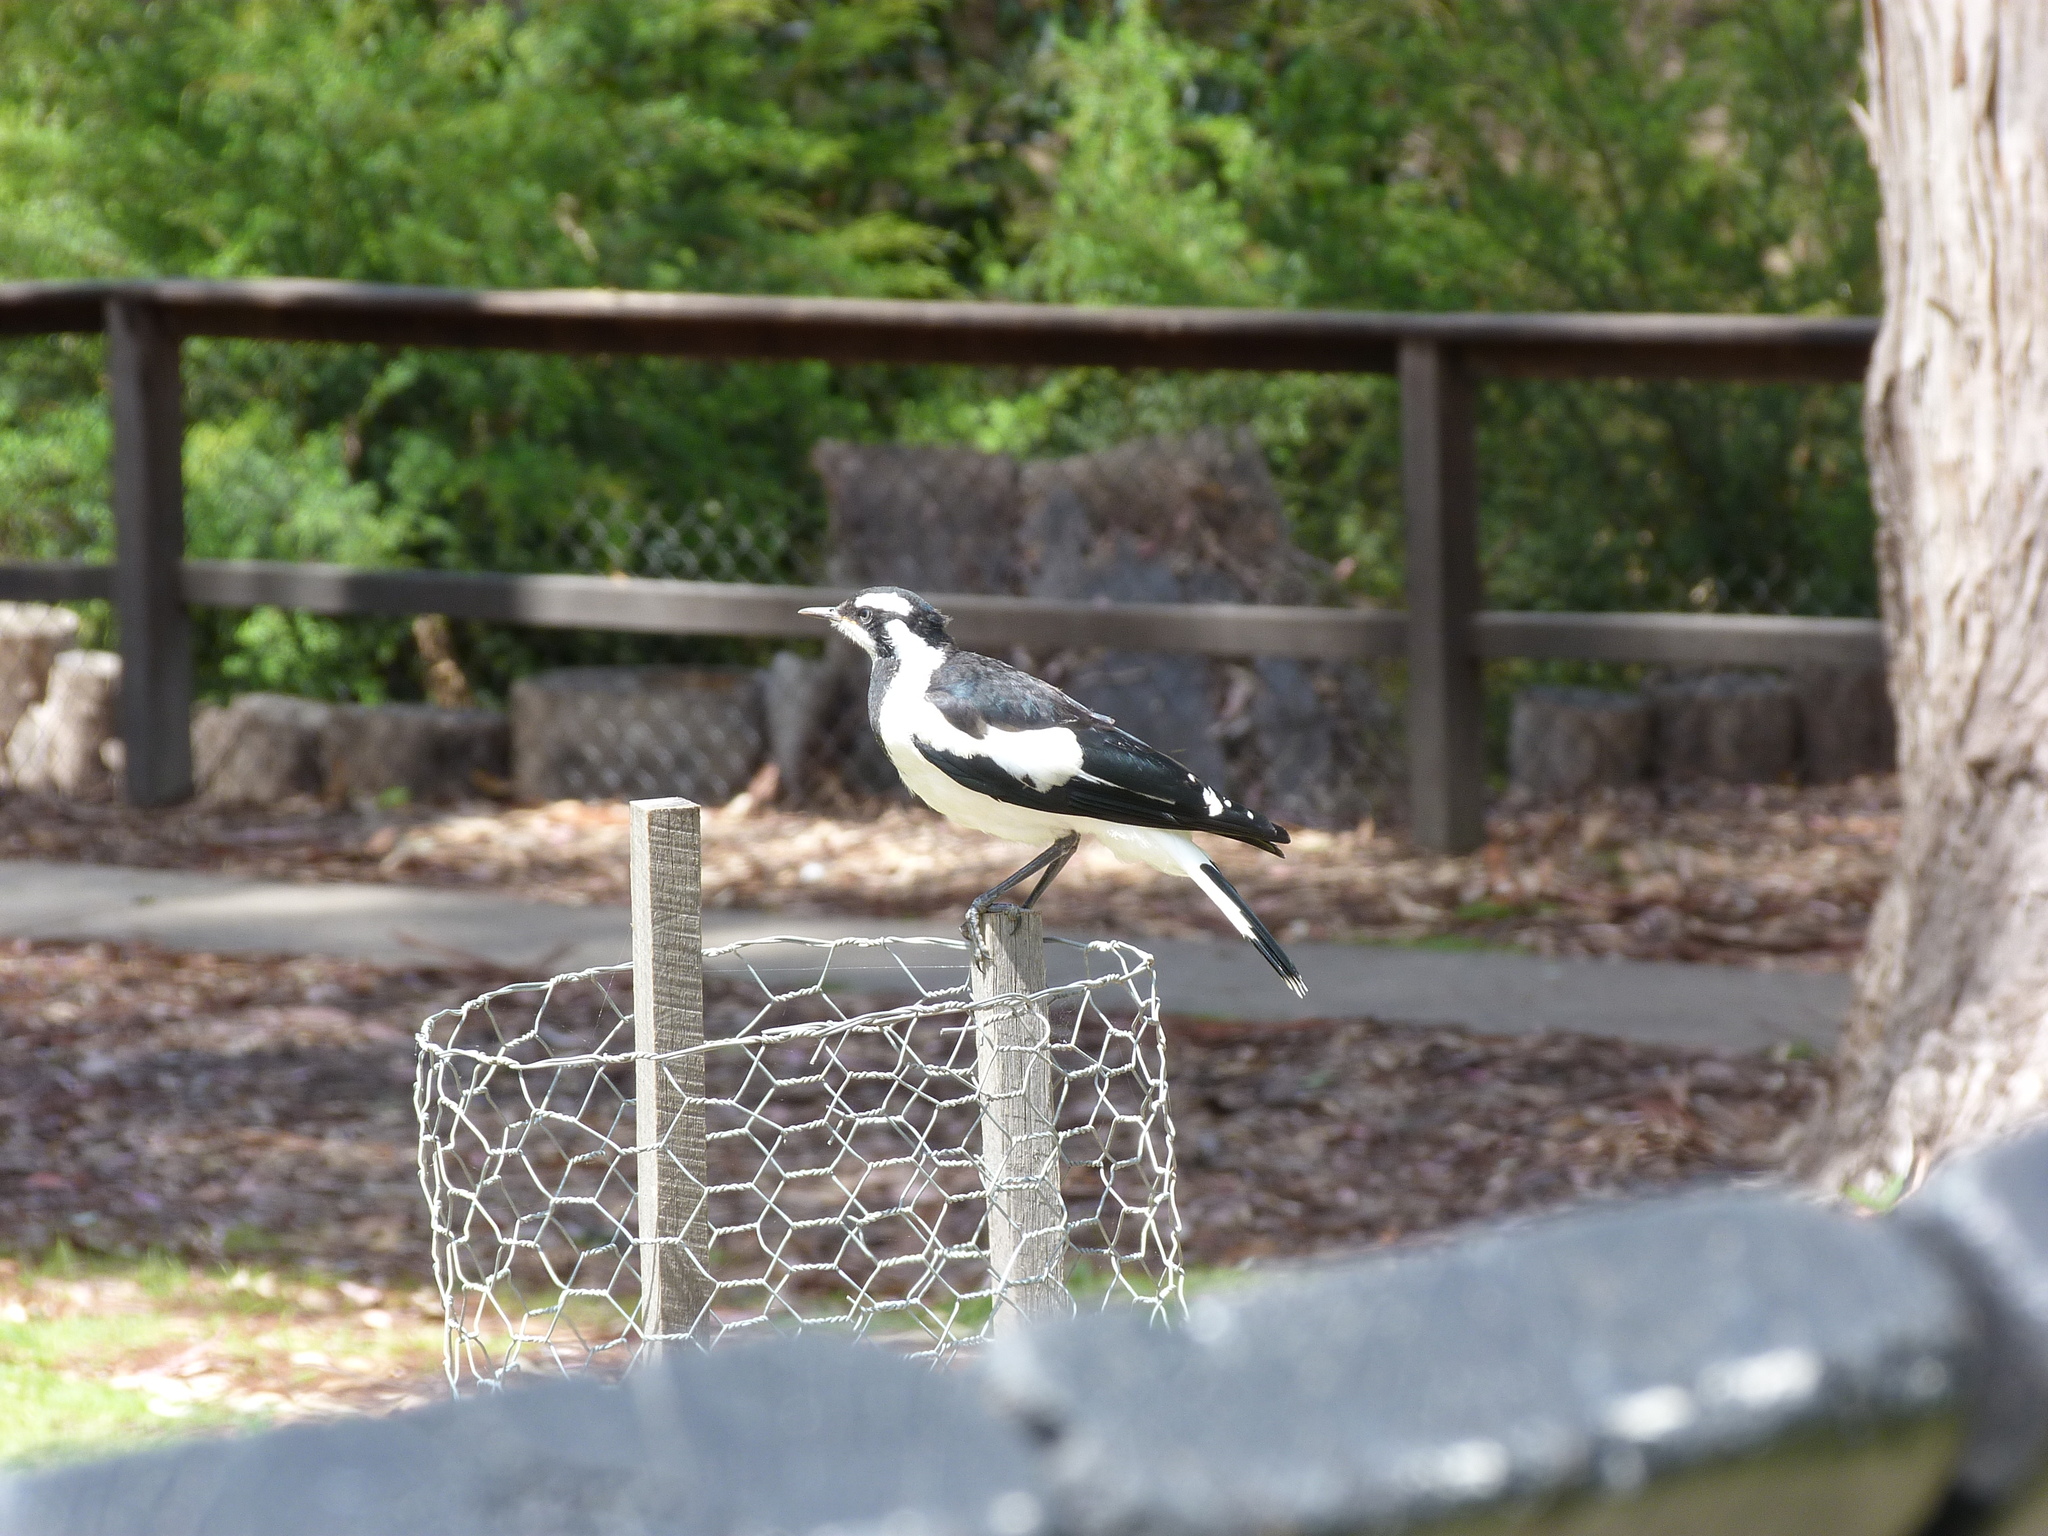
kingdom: Animalia
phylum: Chordata
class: Aves
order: Passeriformes
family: Monarchidae
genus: Grallina
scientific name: Grallina cyanoleuca
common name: Magpie-lark
